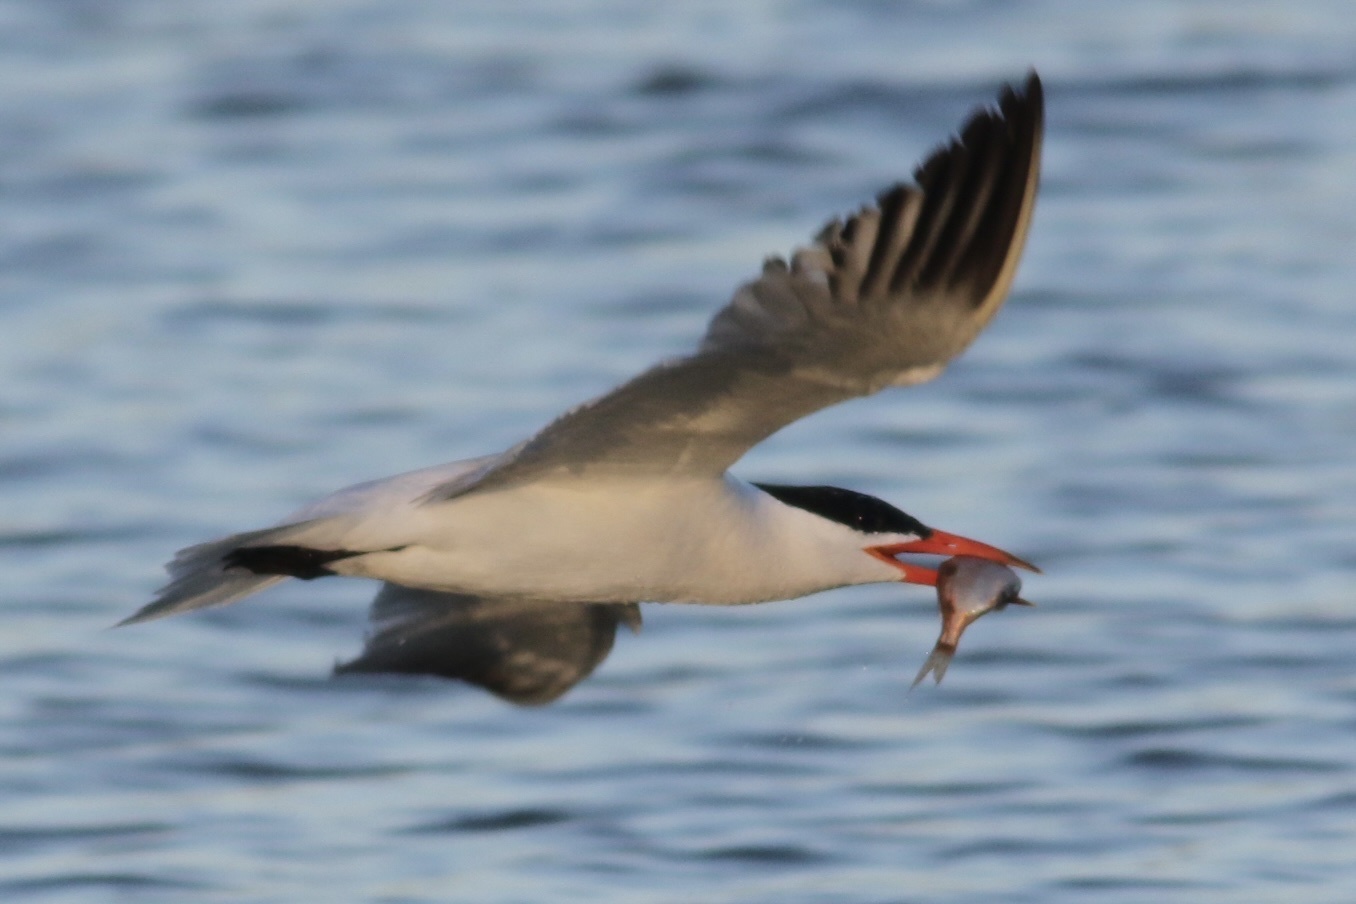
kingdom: Animalia
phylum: Chordata
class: Aves
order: Charadriiformes
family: Laridae
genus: Hydroprogne
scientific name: Hydroprogne caspia
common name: Caspian tern
